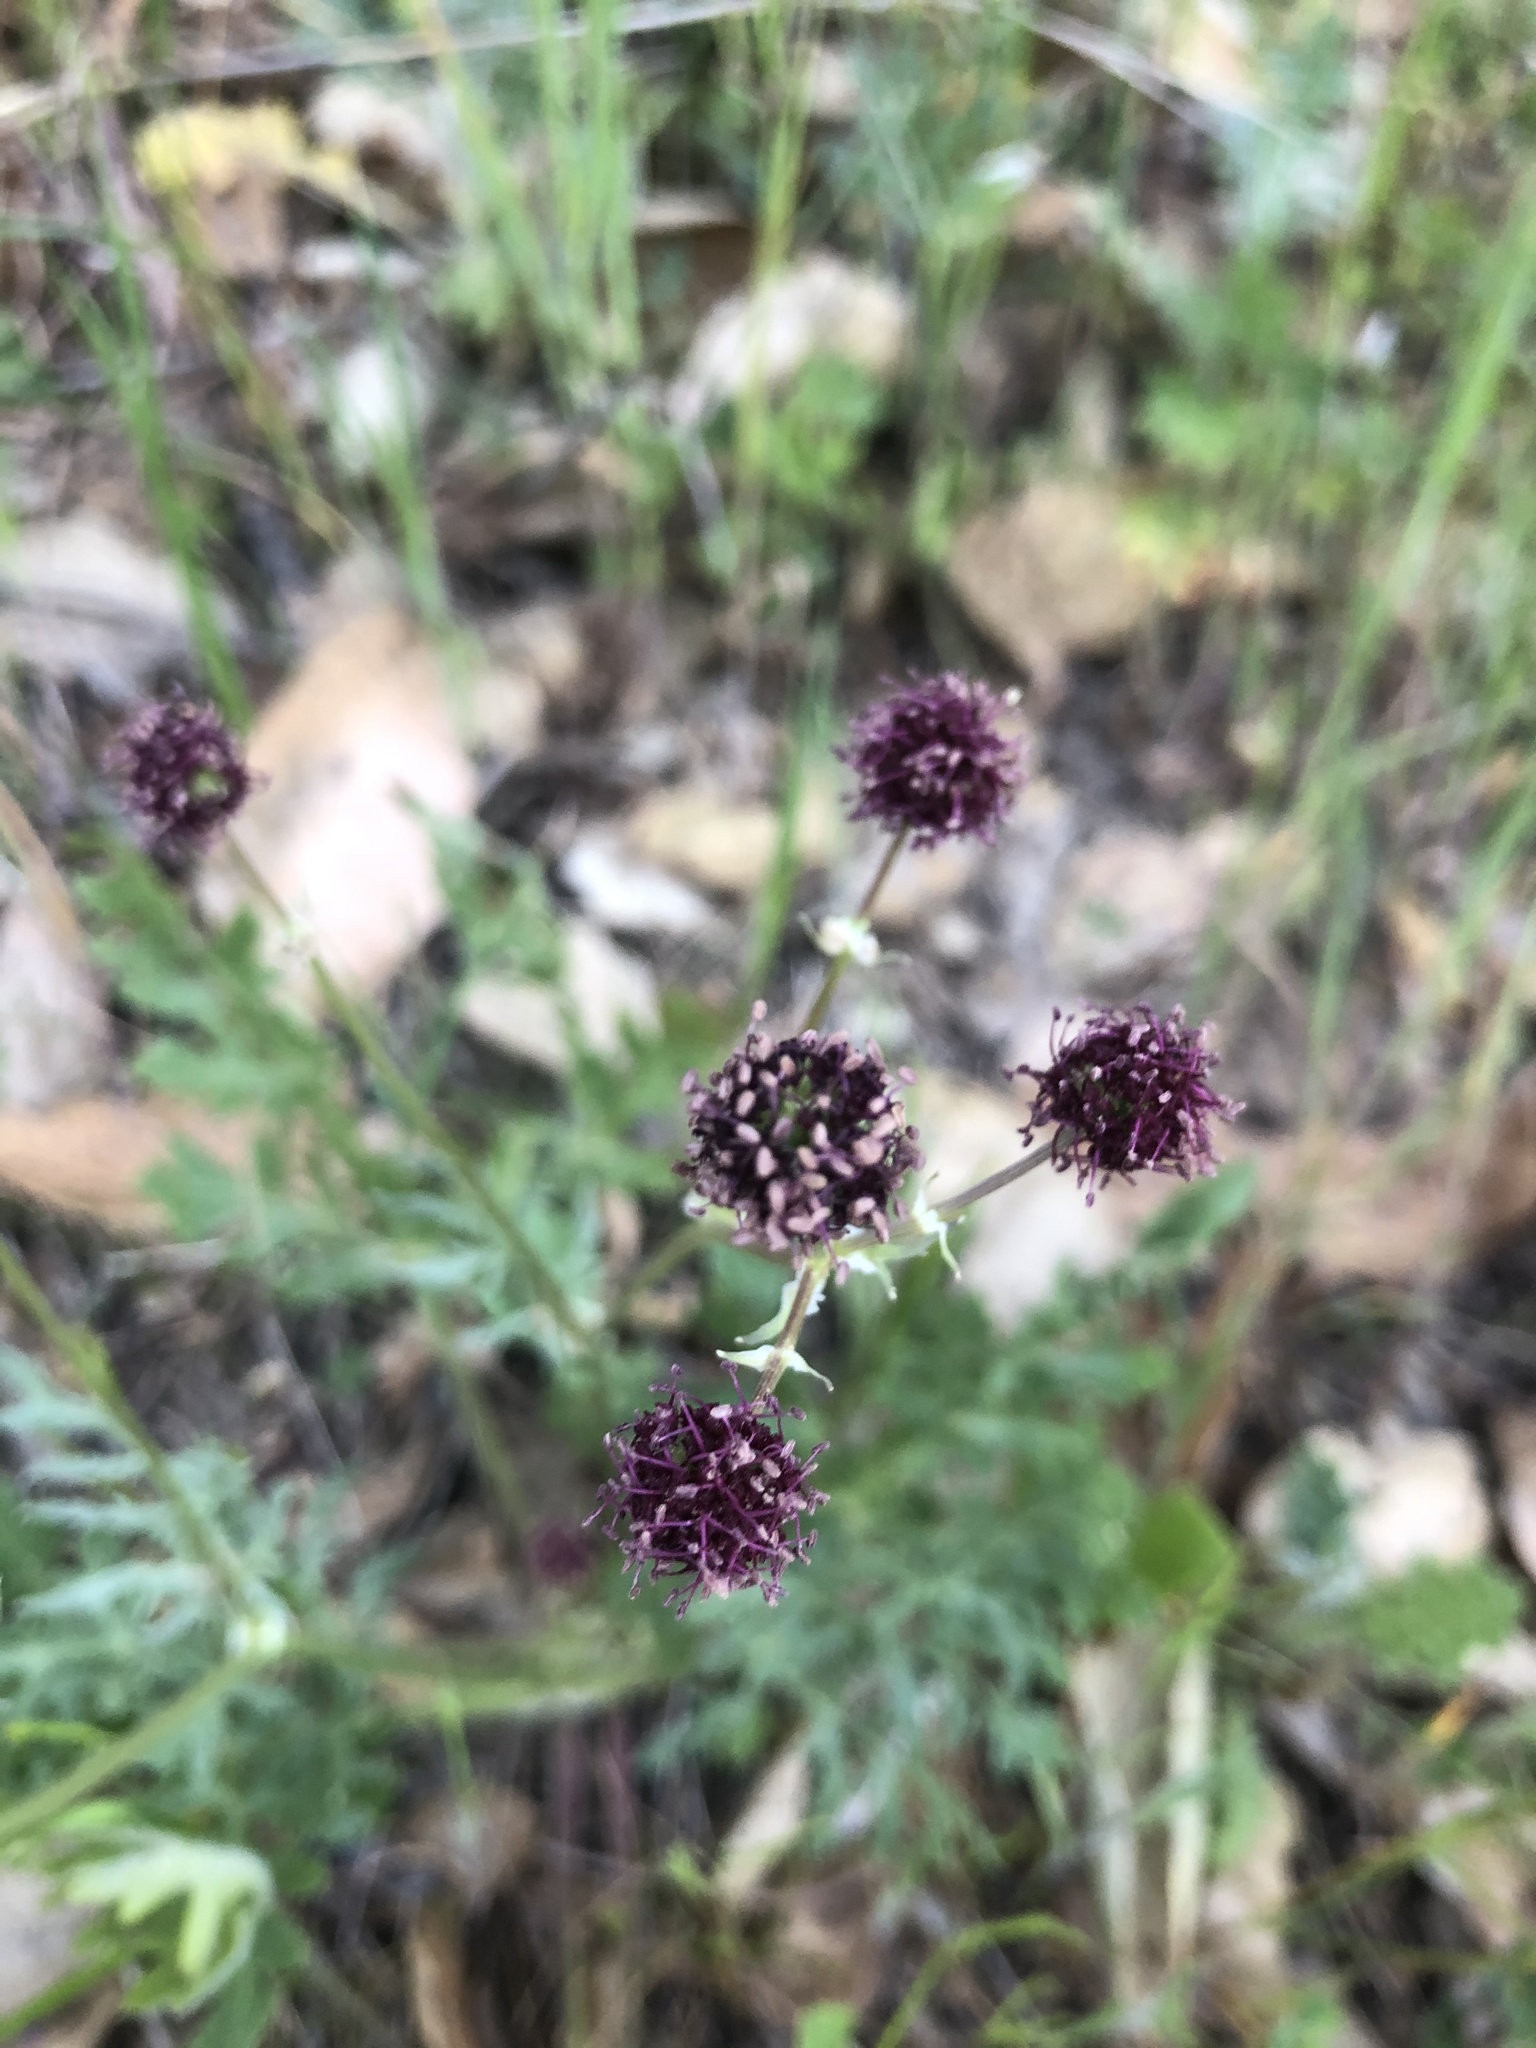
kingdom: Plantae
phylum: Tracheophyta
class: Magnoliopsida
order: Apiales
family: Apiaceae
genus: Sanicula
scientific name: Sanicula bipinnatifida
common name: Shoe-buttons
